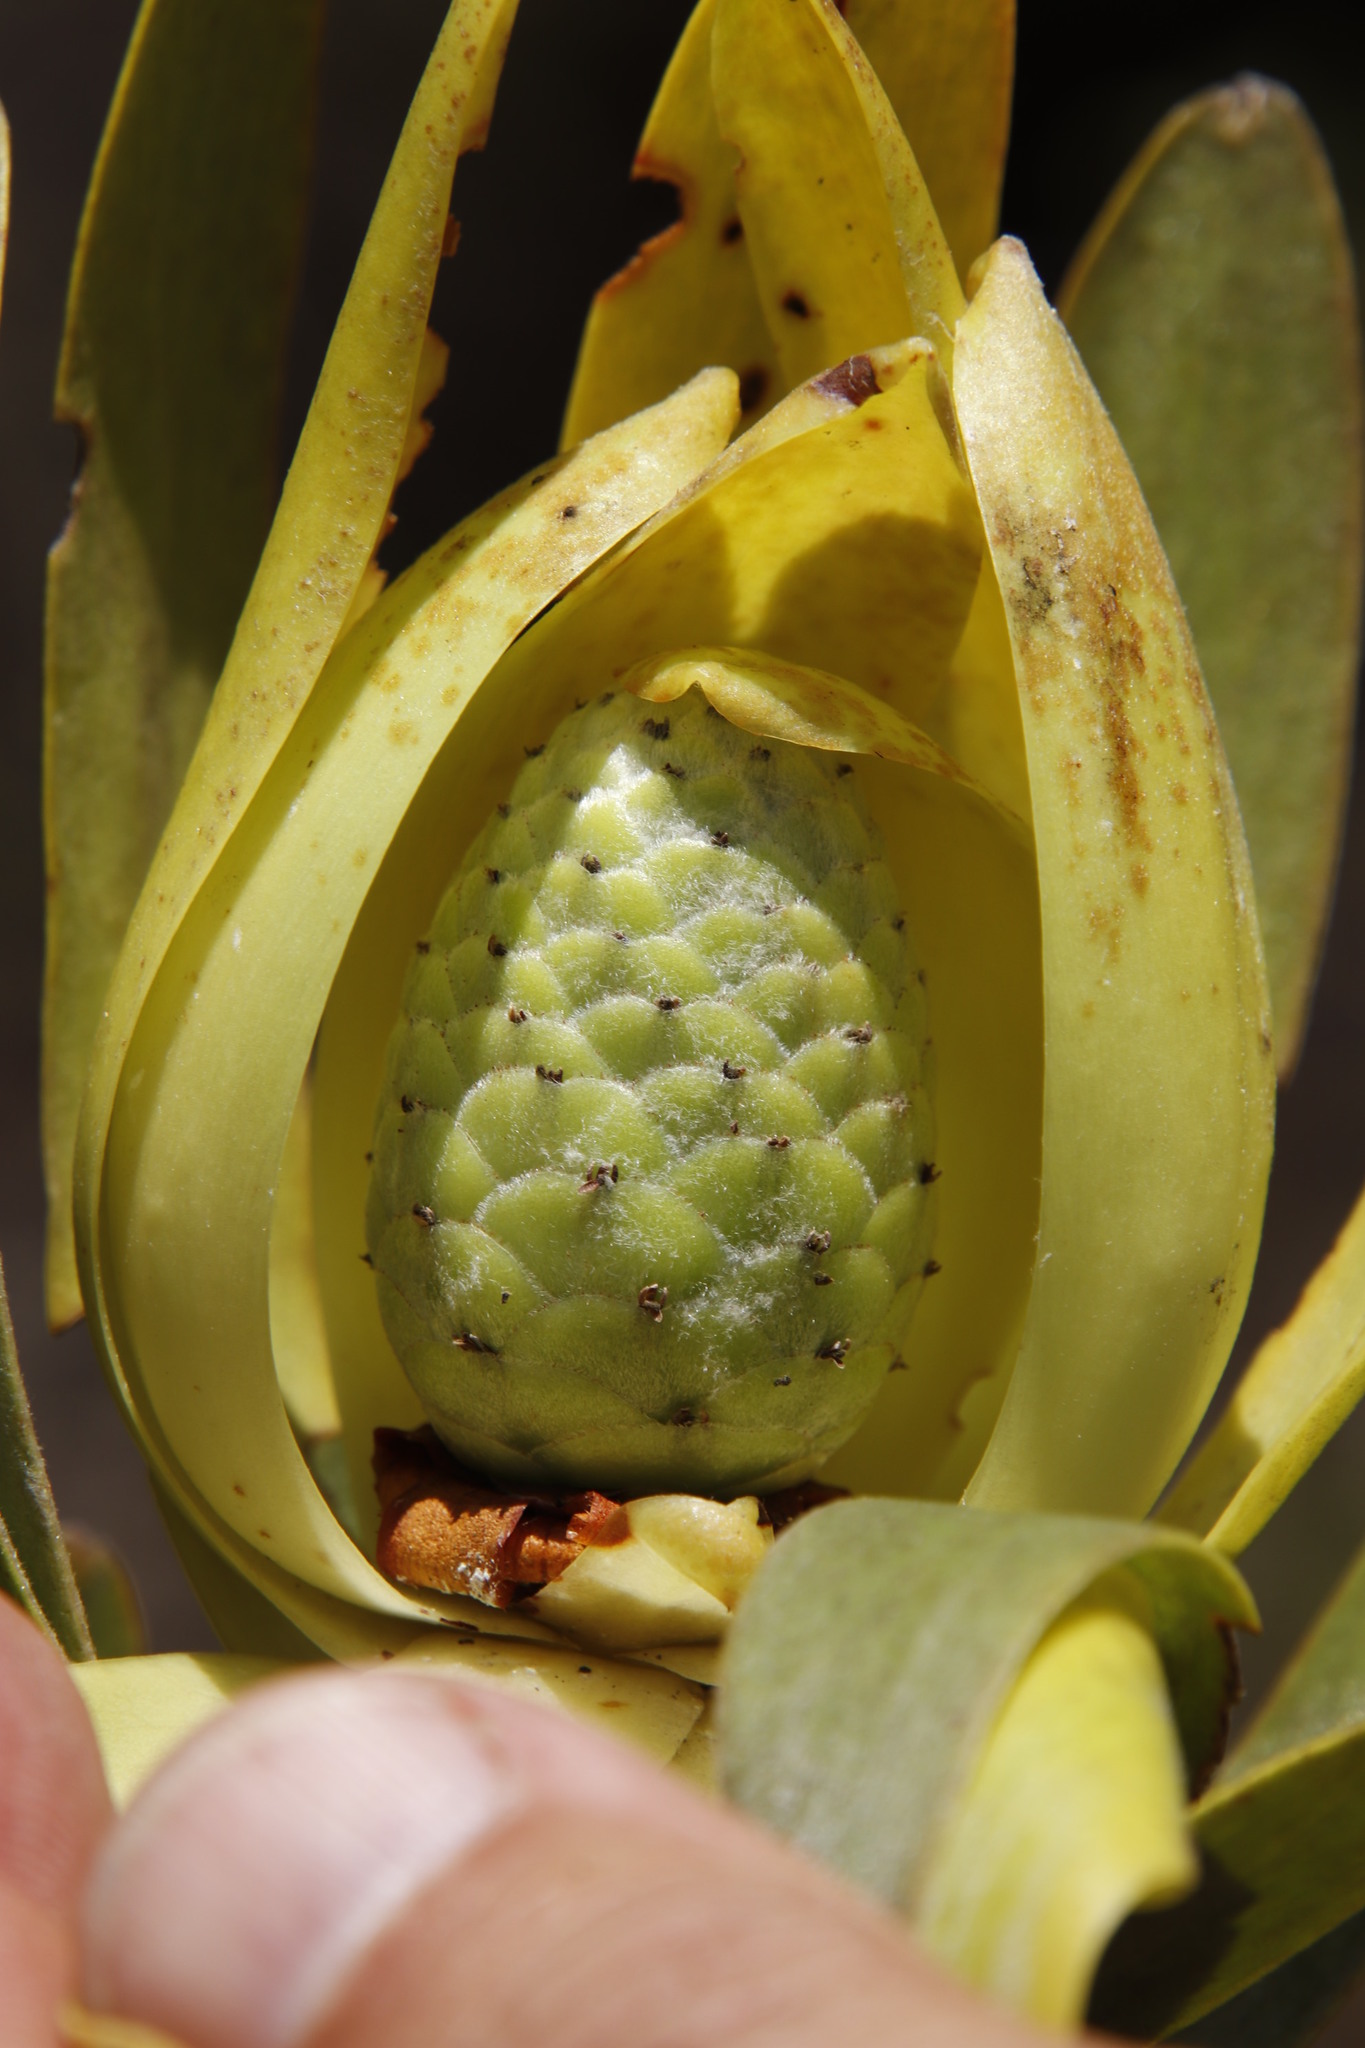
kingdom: Plantae
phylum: Tracheophyta
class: Magnoliopsida
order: Proteales
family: Proteaceae
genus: Leucadendron
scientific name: Leucadendron laureolum
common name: Golden sunshinebush
